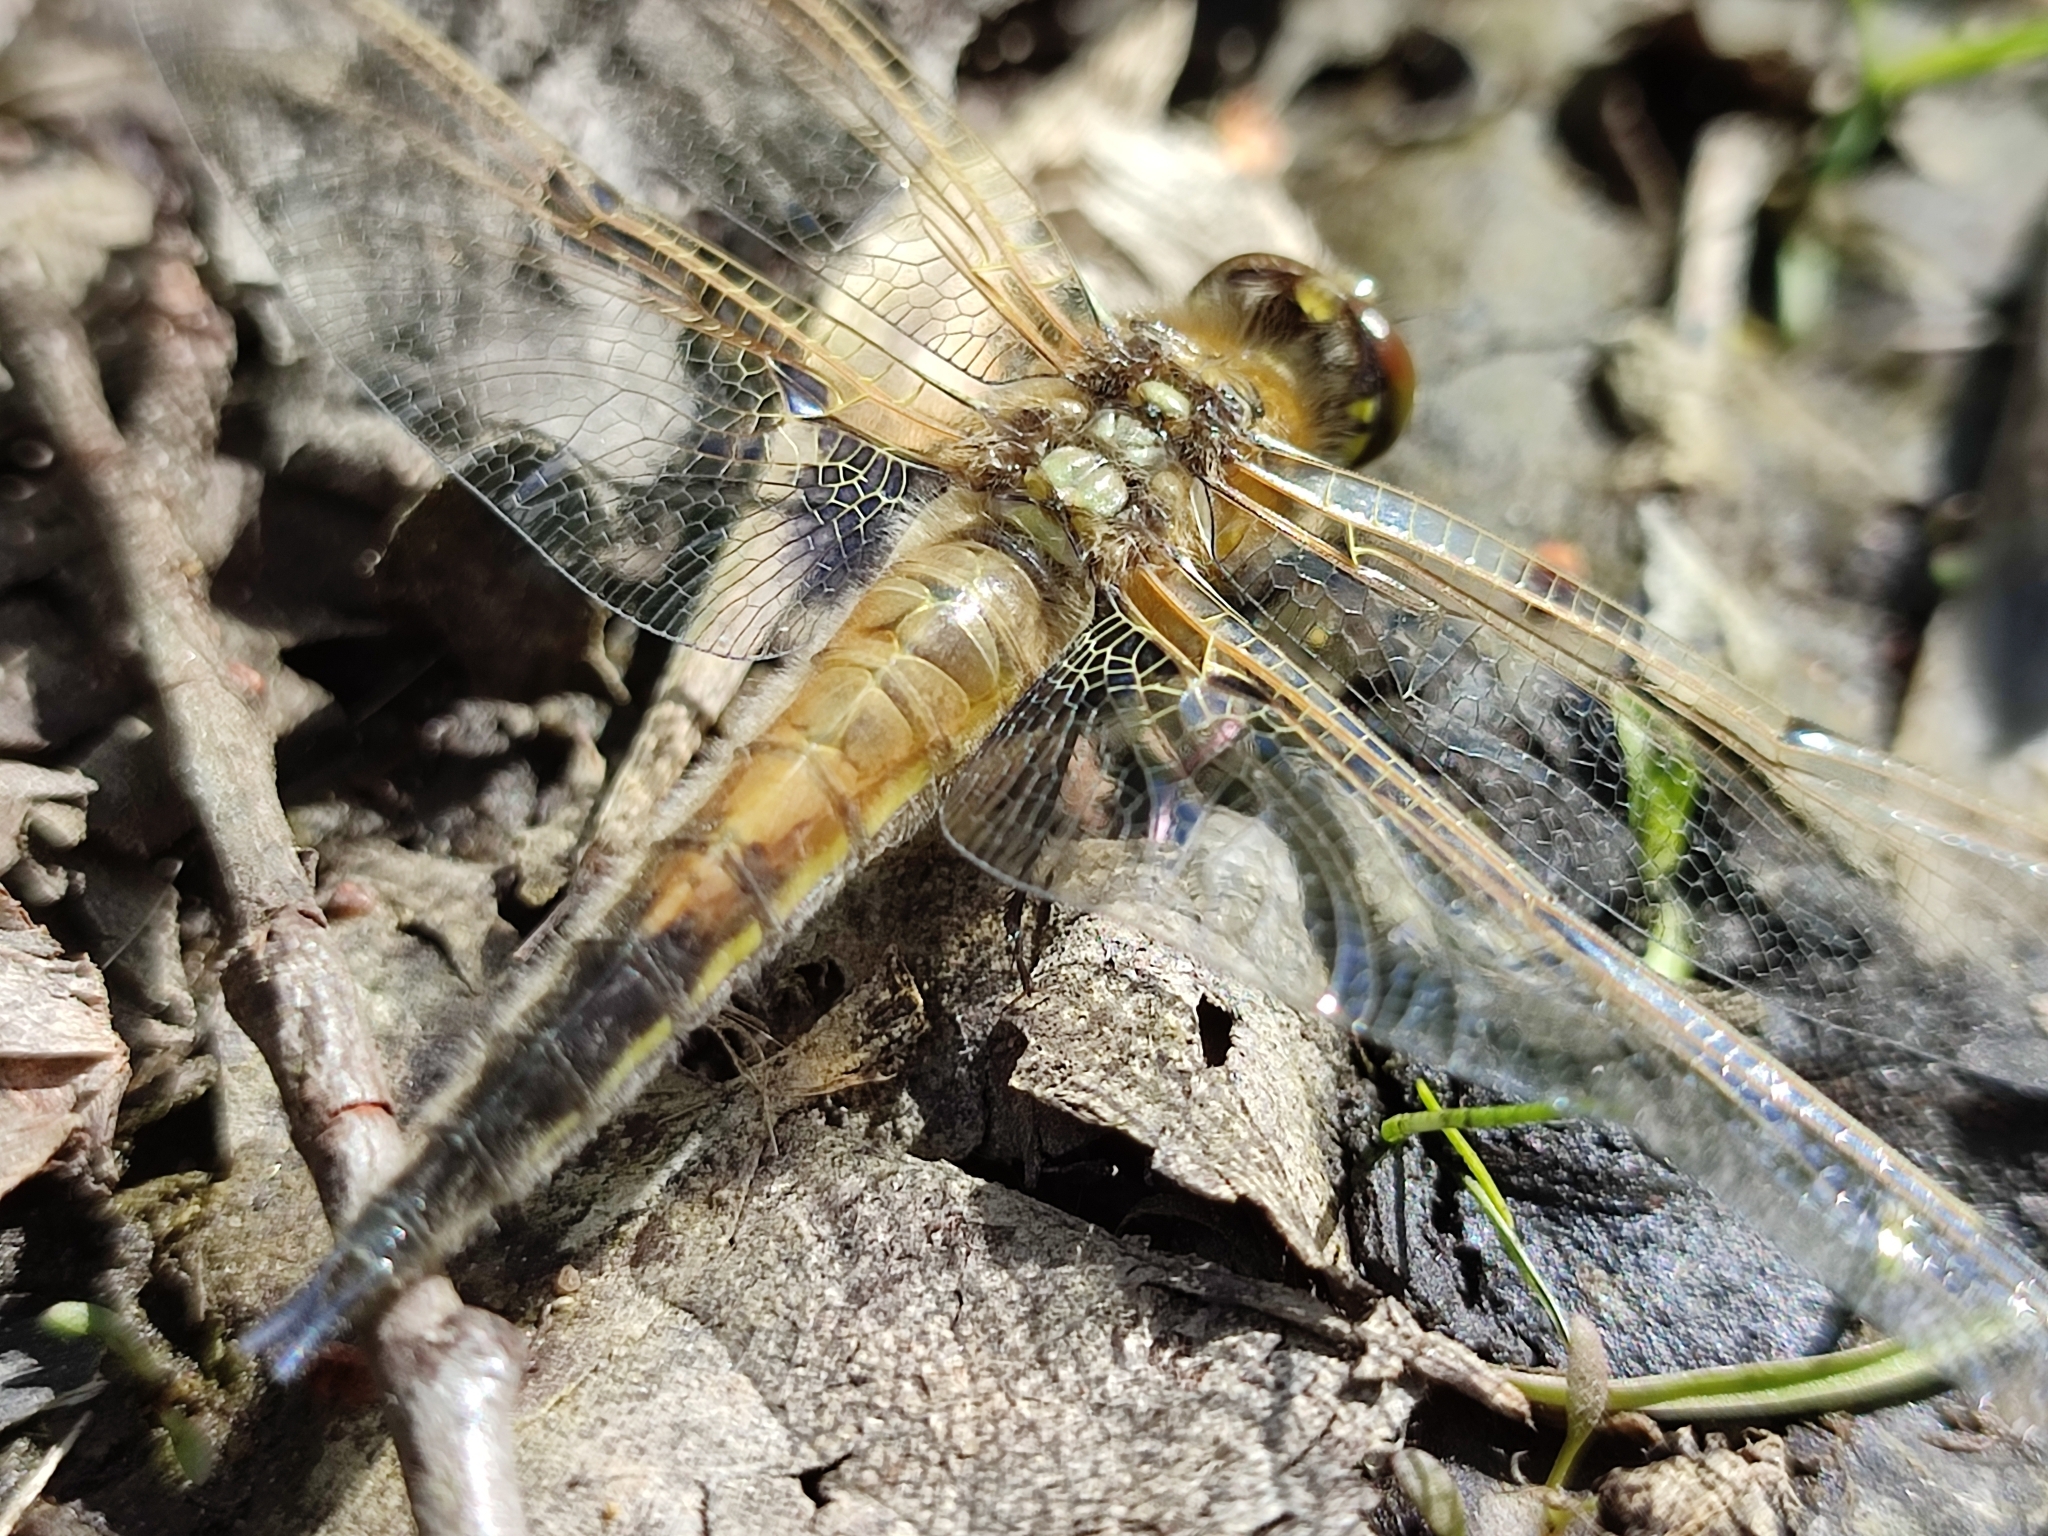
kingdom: Animalia
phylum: Arthropoda
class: Insecta
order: Odonata
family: Libellulidae
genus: Libellula
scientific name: Libellula quadrimaculata
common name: Four-spotted chaser
